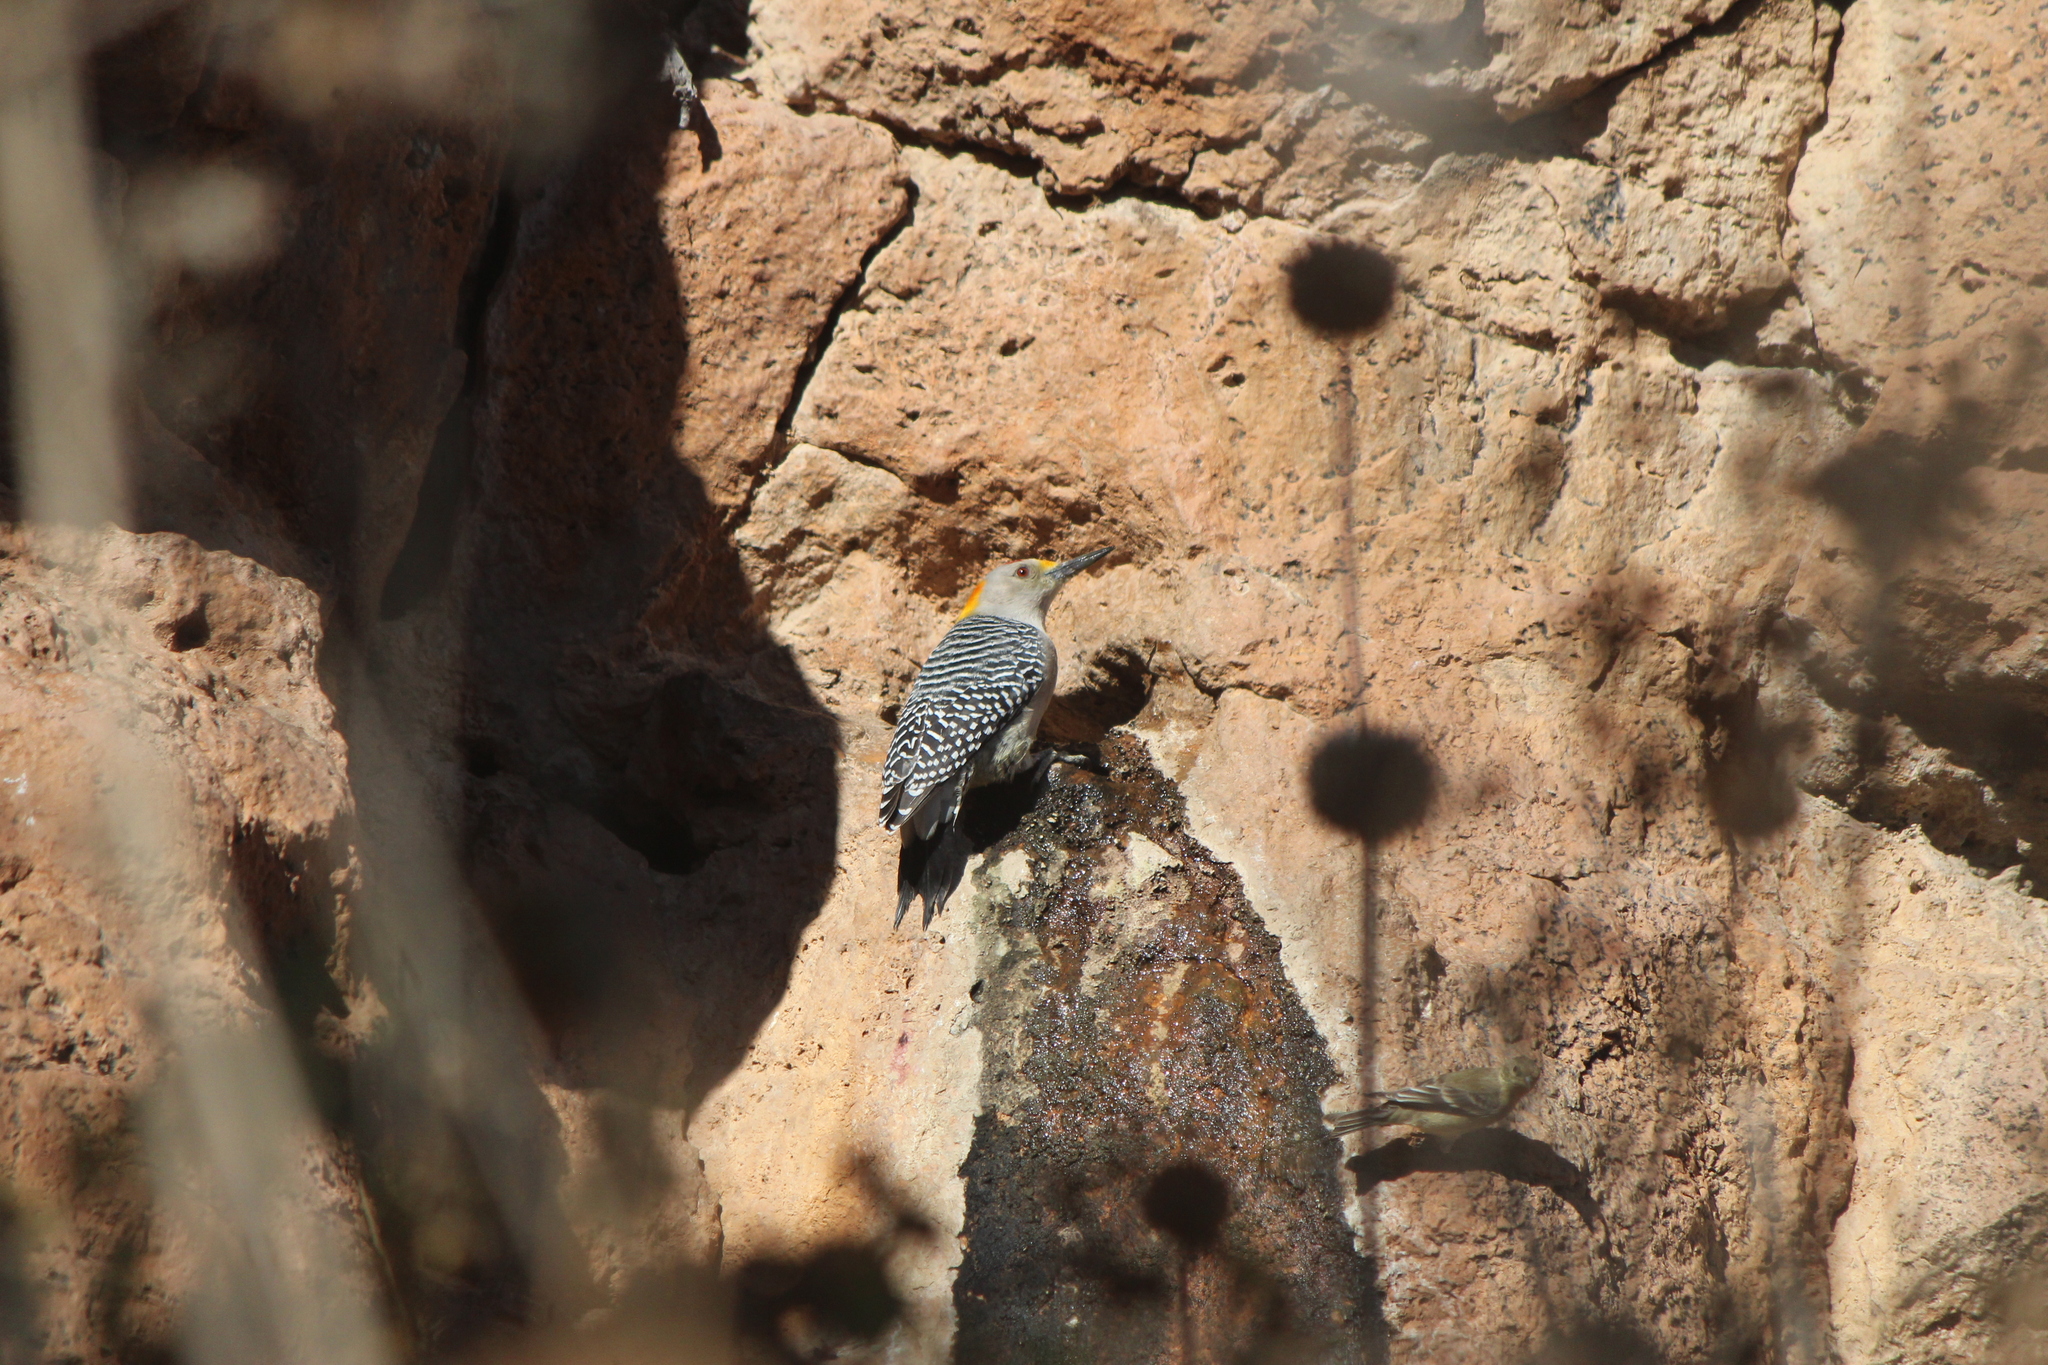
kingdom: Animalia
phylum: Chordata
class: Aves
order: Piciformes
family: Picidae
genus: Melanerpes
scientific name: Melanerpes aurifrons
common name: Golden-fronted woodpecker
